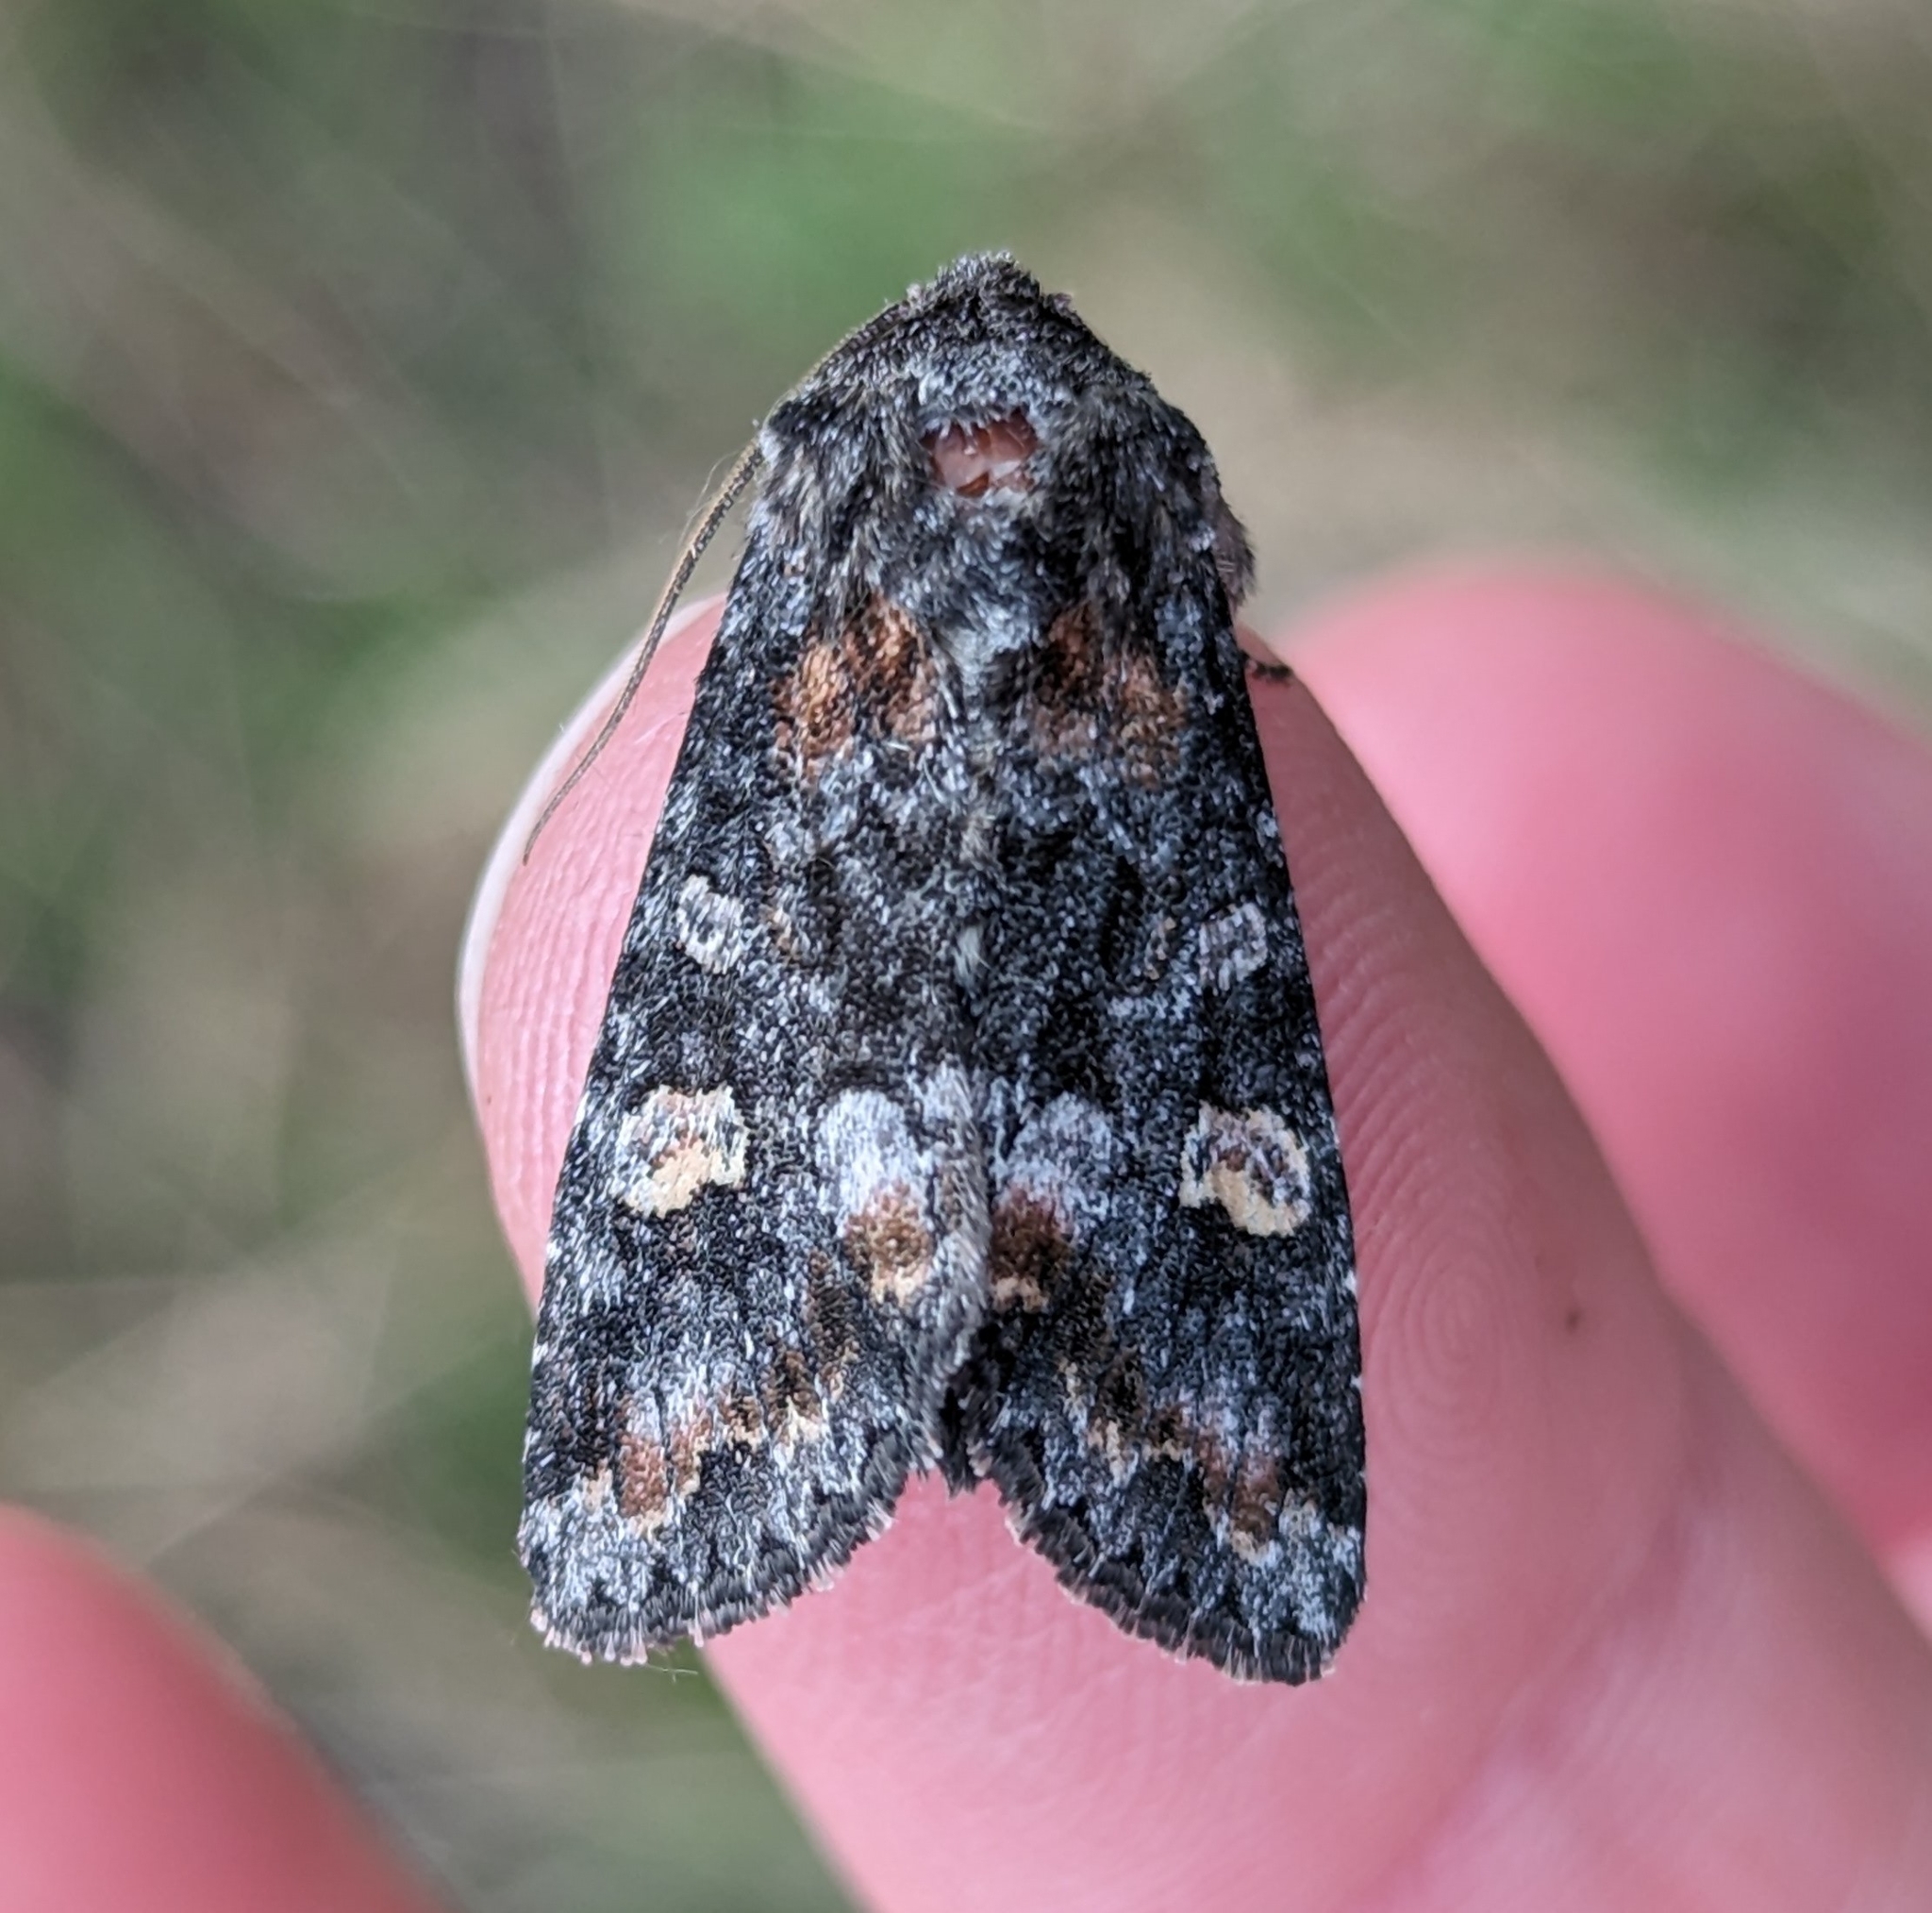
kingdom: Animalia
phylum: Arthropoda
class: Insecta
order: Lepidoptera
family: Noctuidae
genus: Spiramater
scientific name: Spiramater lutra
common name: Otter spiramater moth
